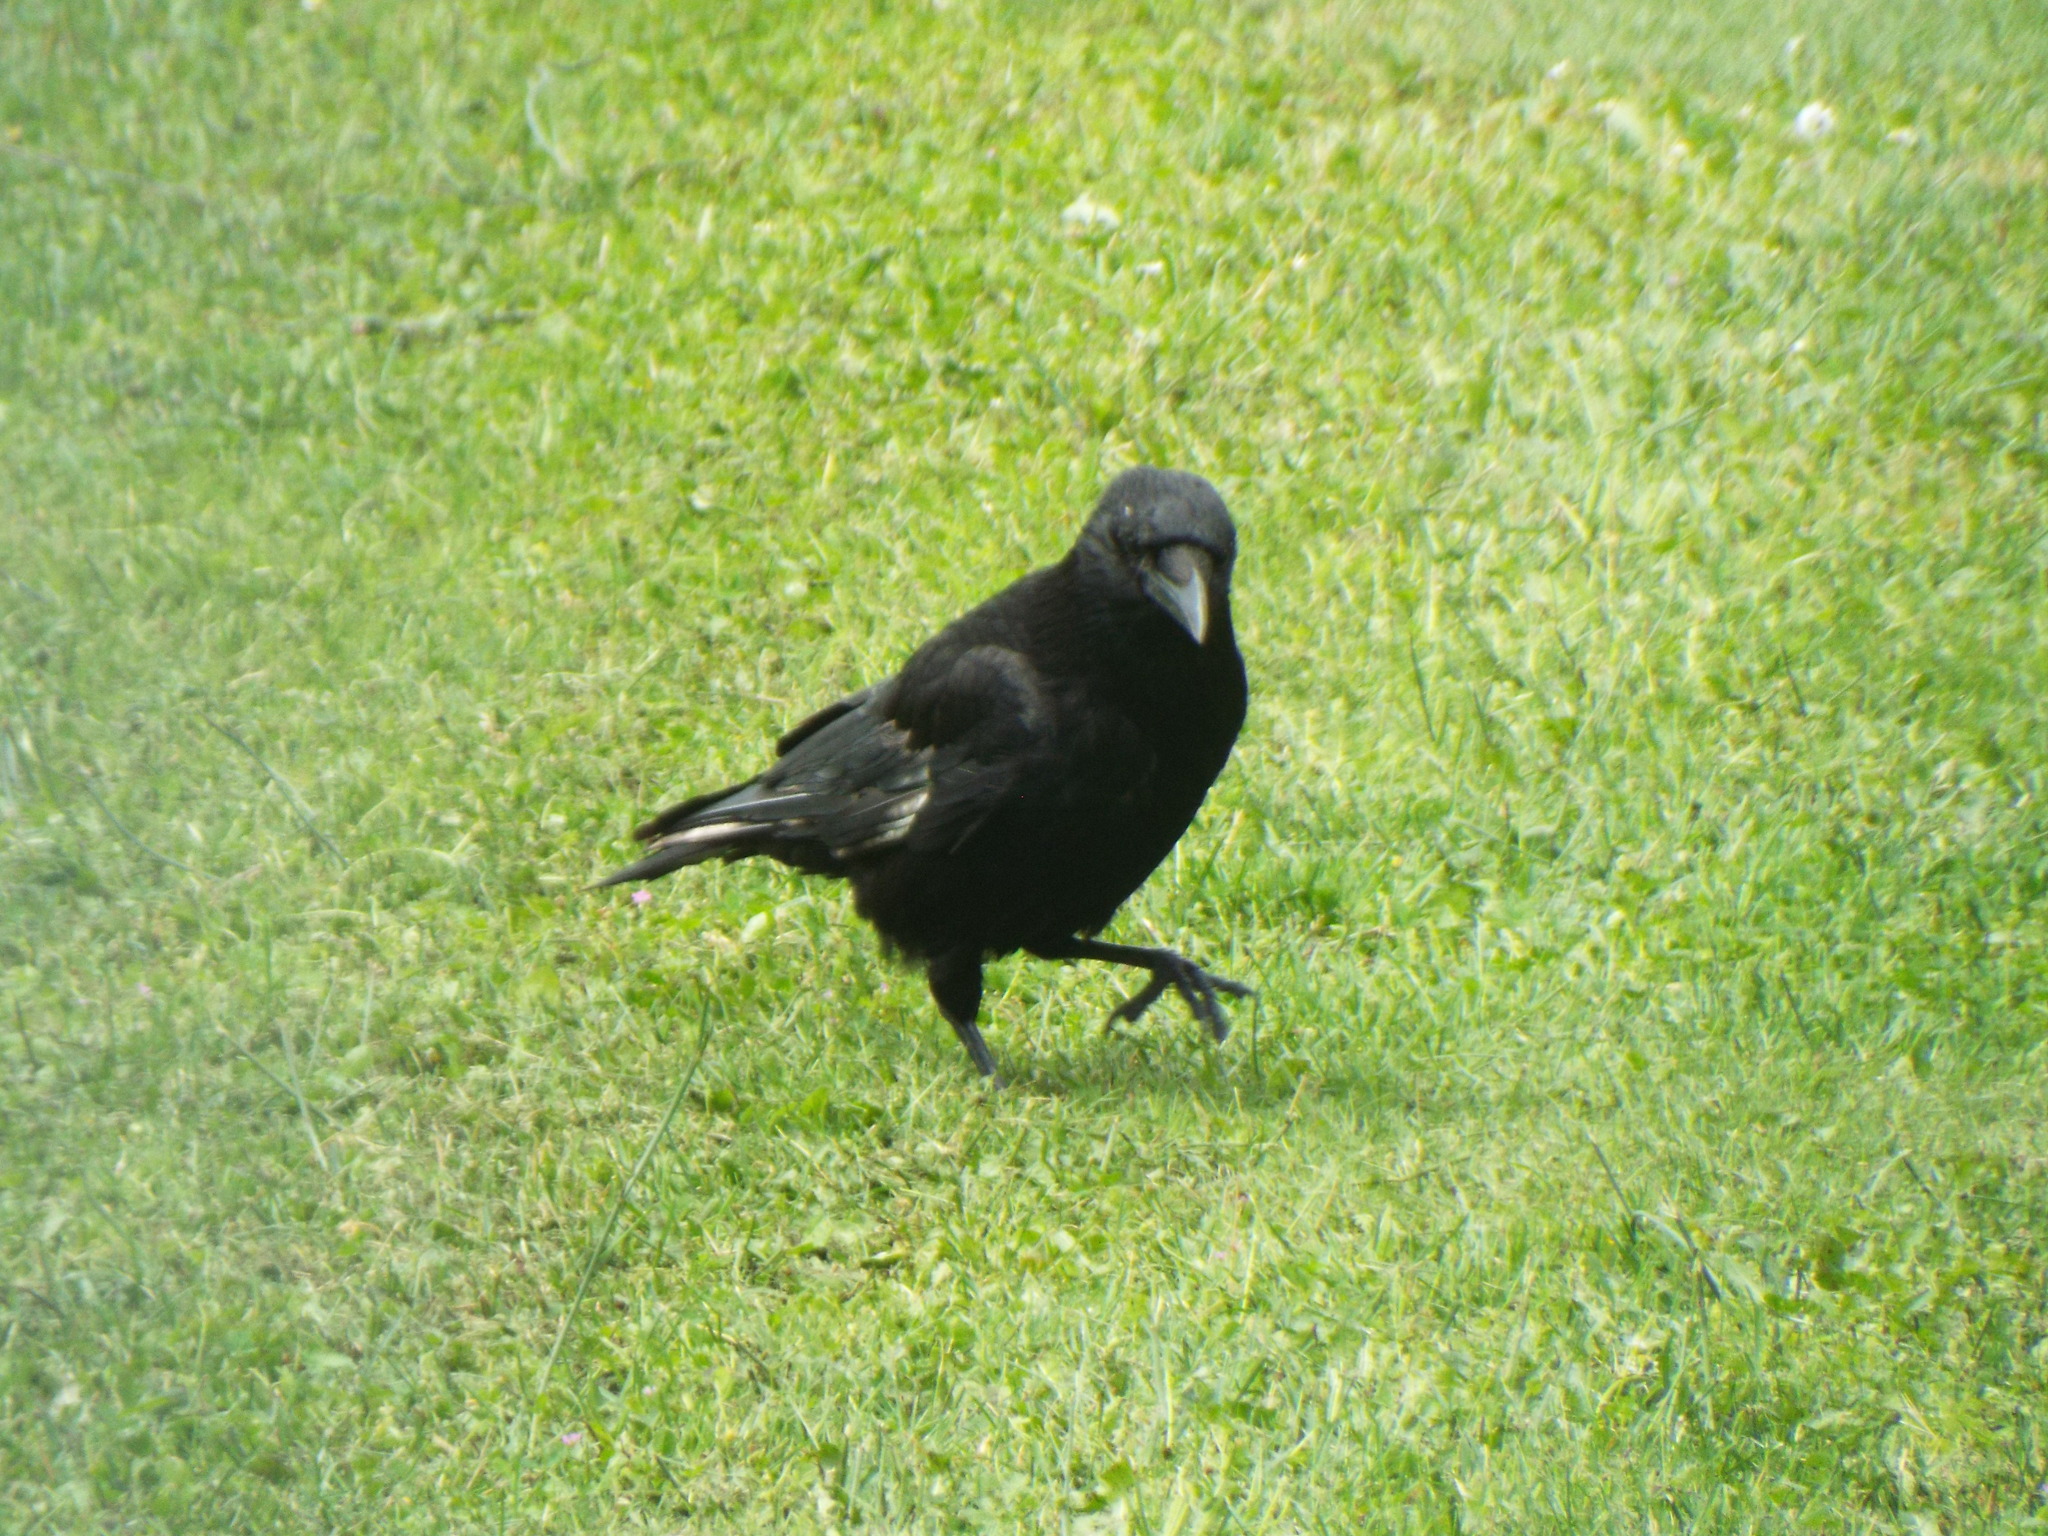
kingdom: Animalia
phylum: Chordata
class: Aves
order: Passeriformes
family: Corvidae
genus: Corvus
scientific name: Corvus corone
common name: Carrion crow
